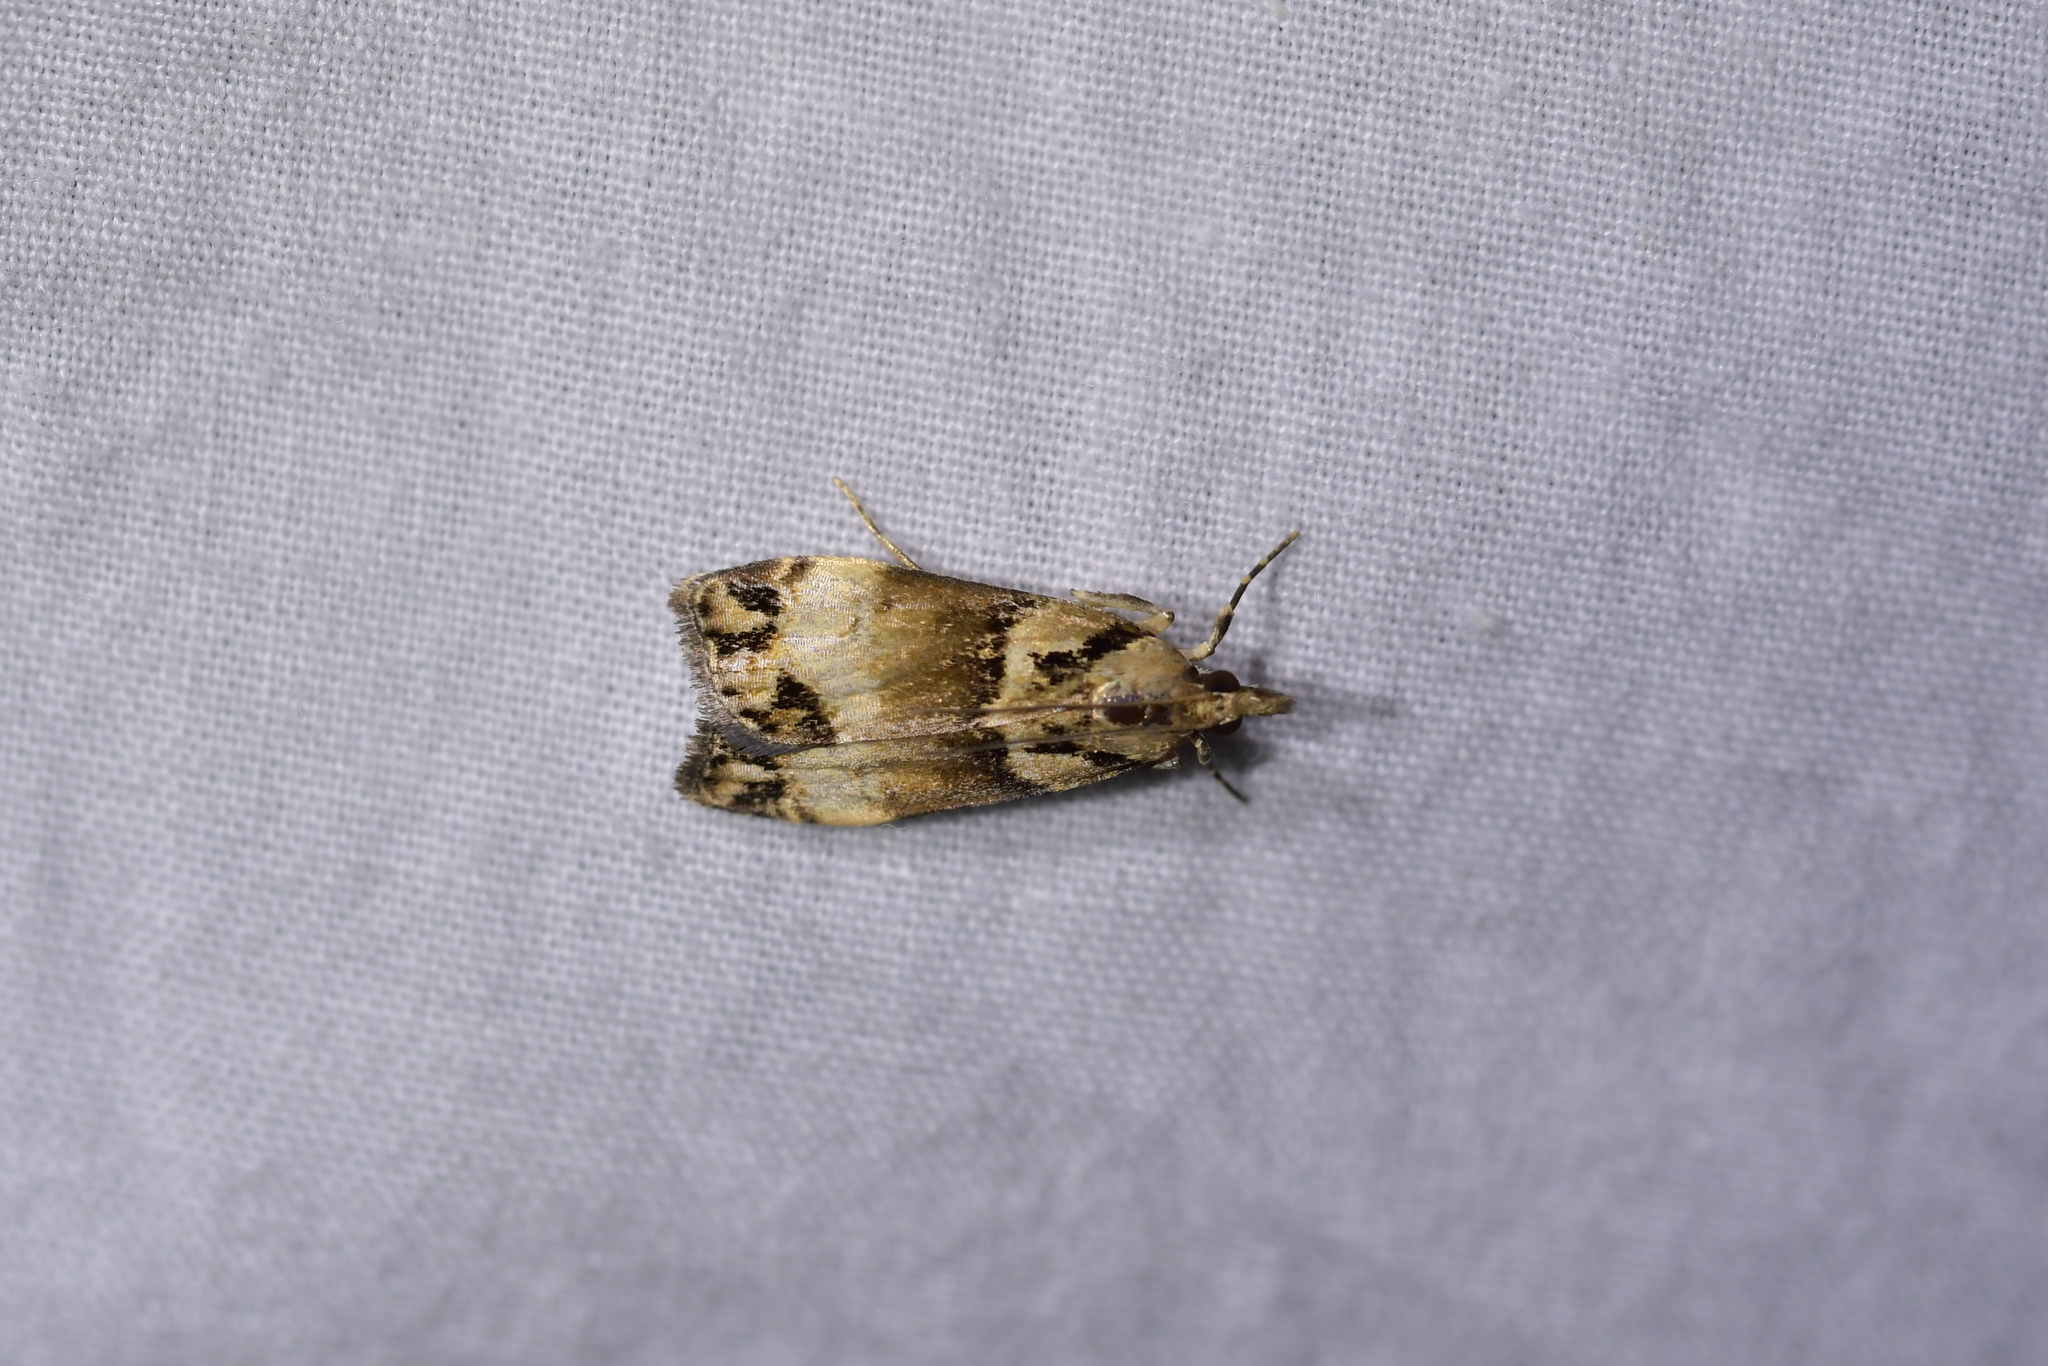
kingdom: Animalia
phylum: Arthropoda
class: Insecta
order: Lepidoptera
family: Crambidae
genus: Eudonia
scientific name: Eudonia periphanes
